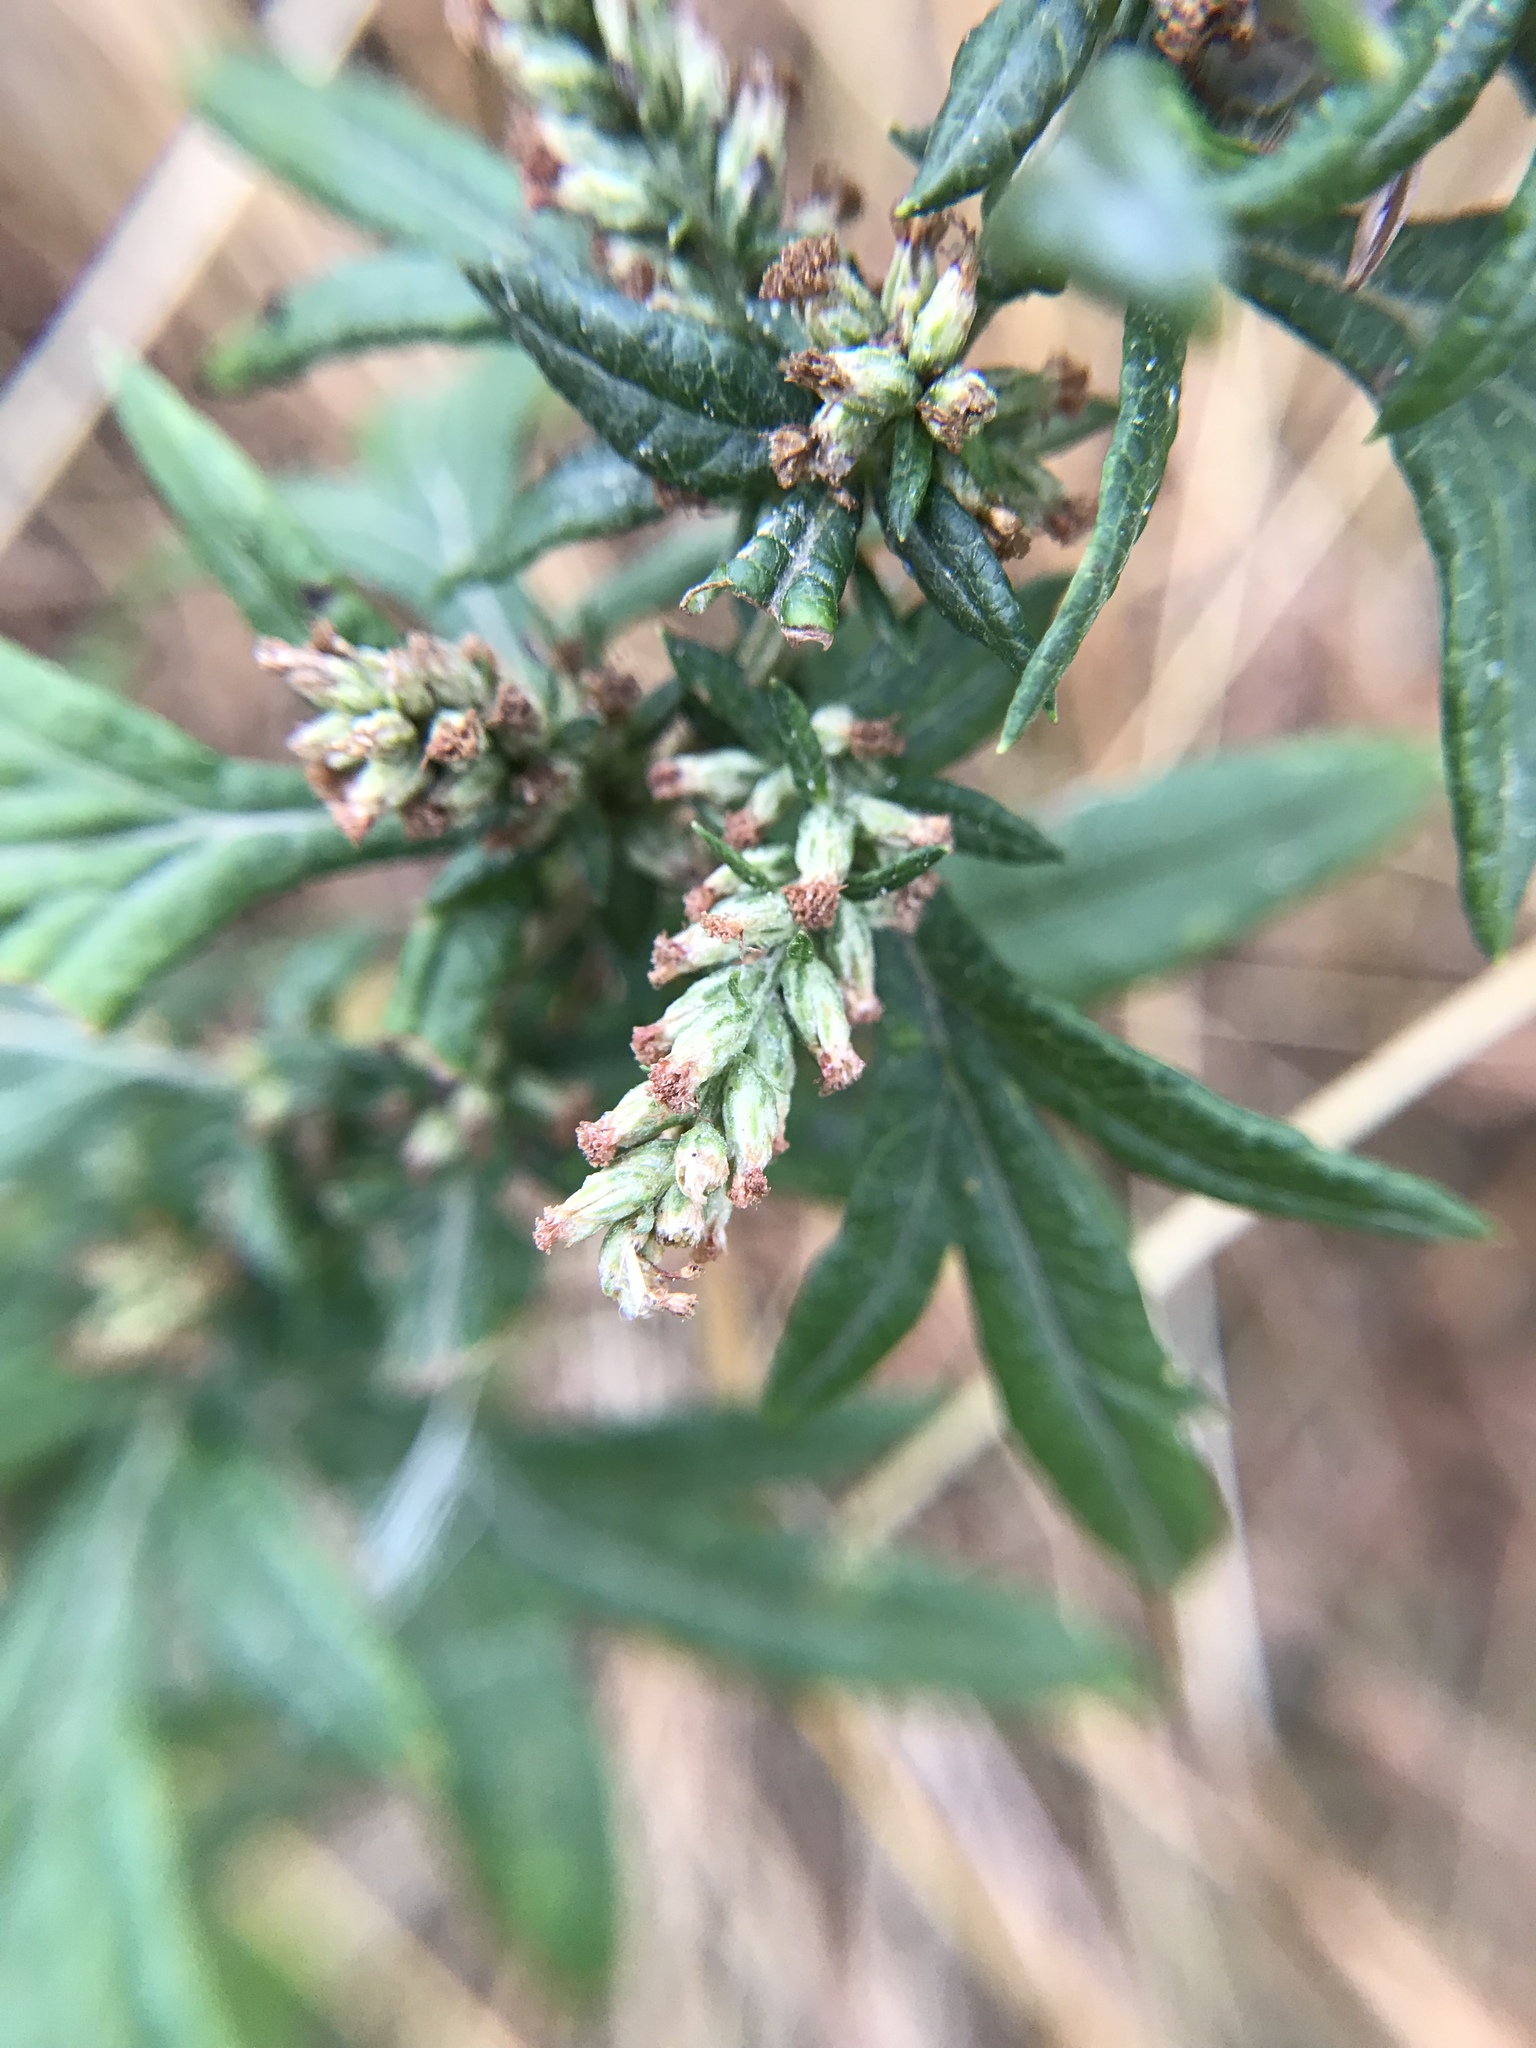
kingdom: Plantae
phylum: Tracheophyta
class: Magnoliopsida
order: Asterales
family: Asteraceae
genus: Artemisia
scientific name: Artemisia vulgaris
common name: Mugwort
